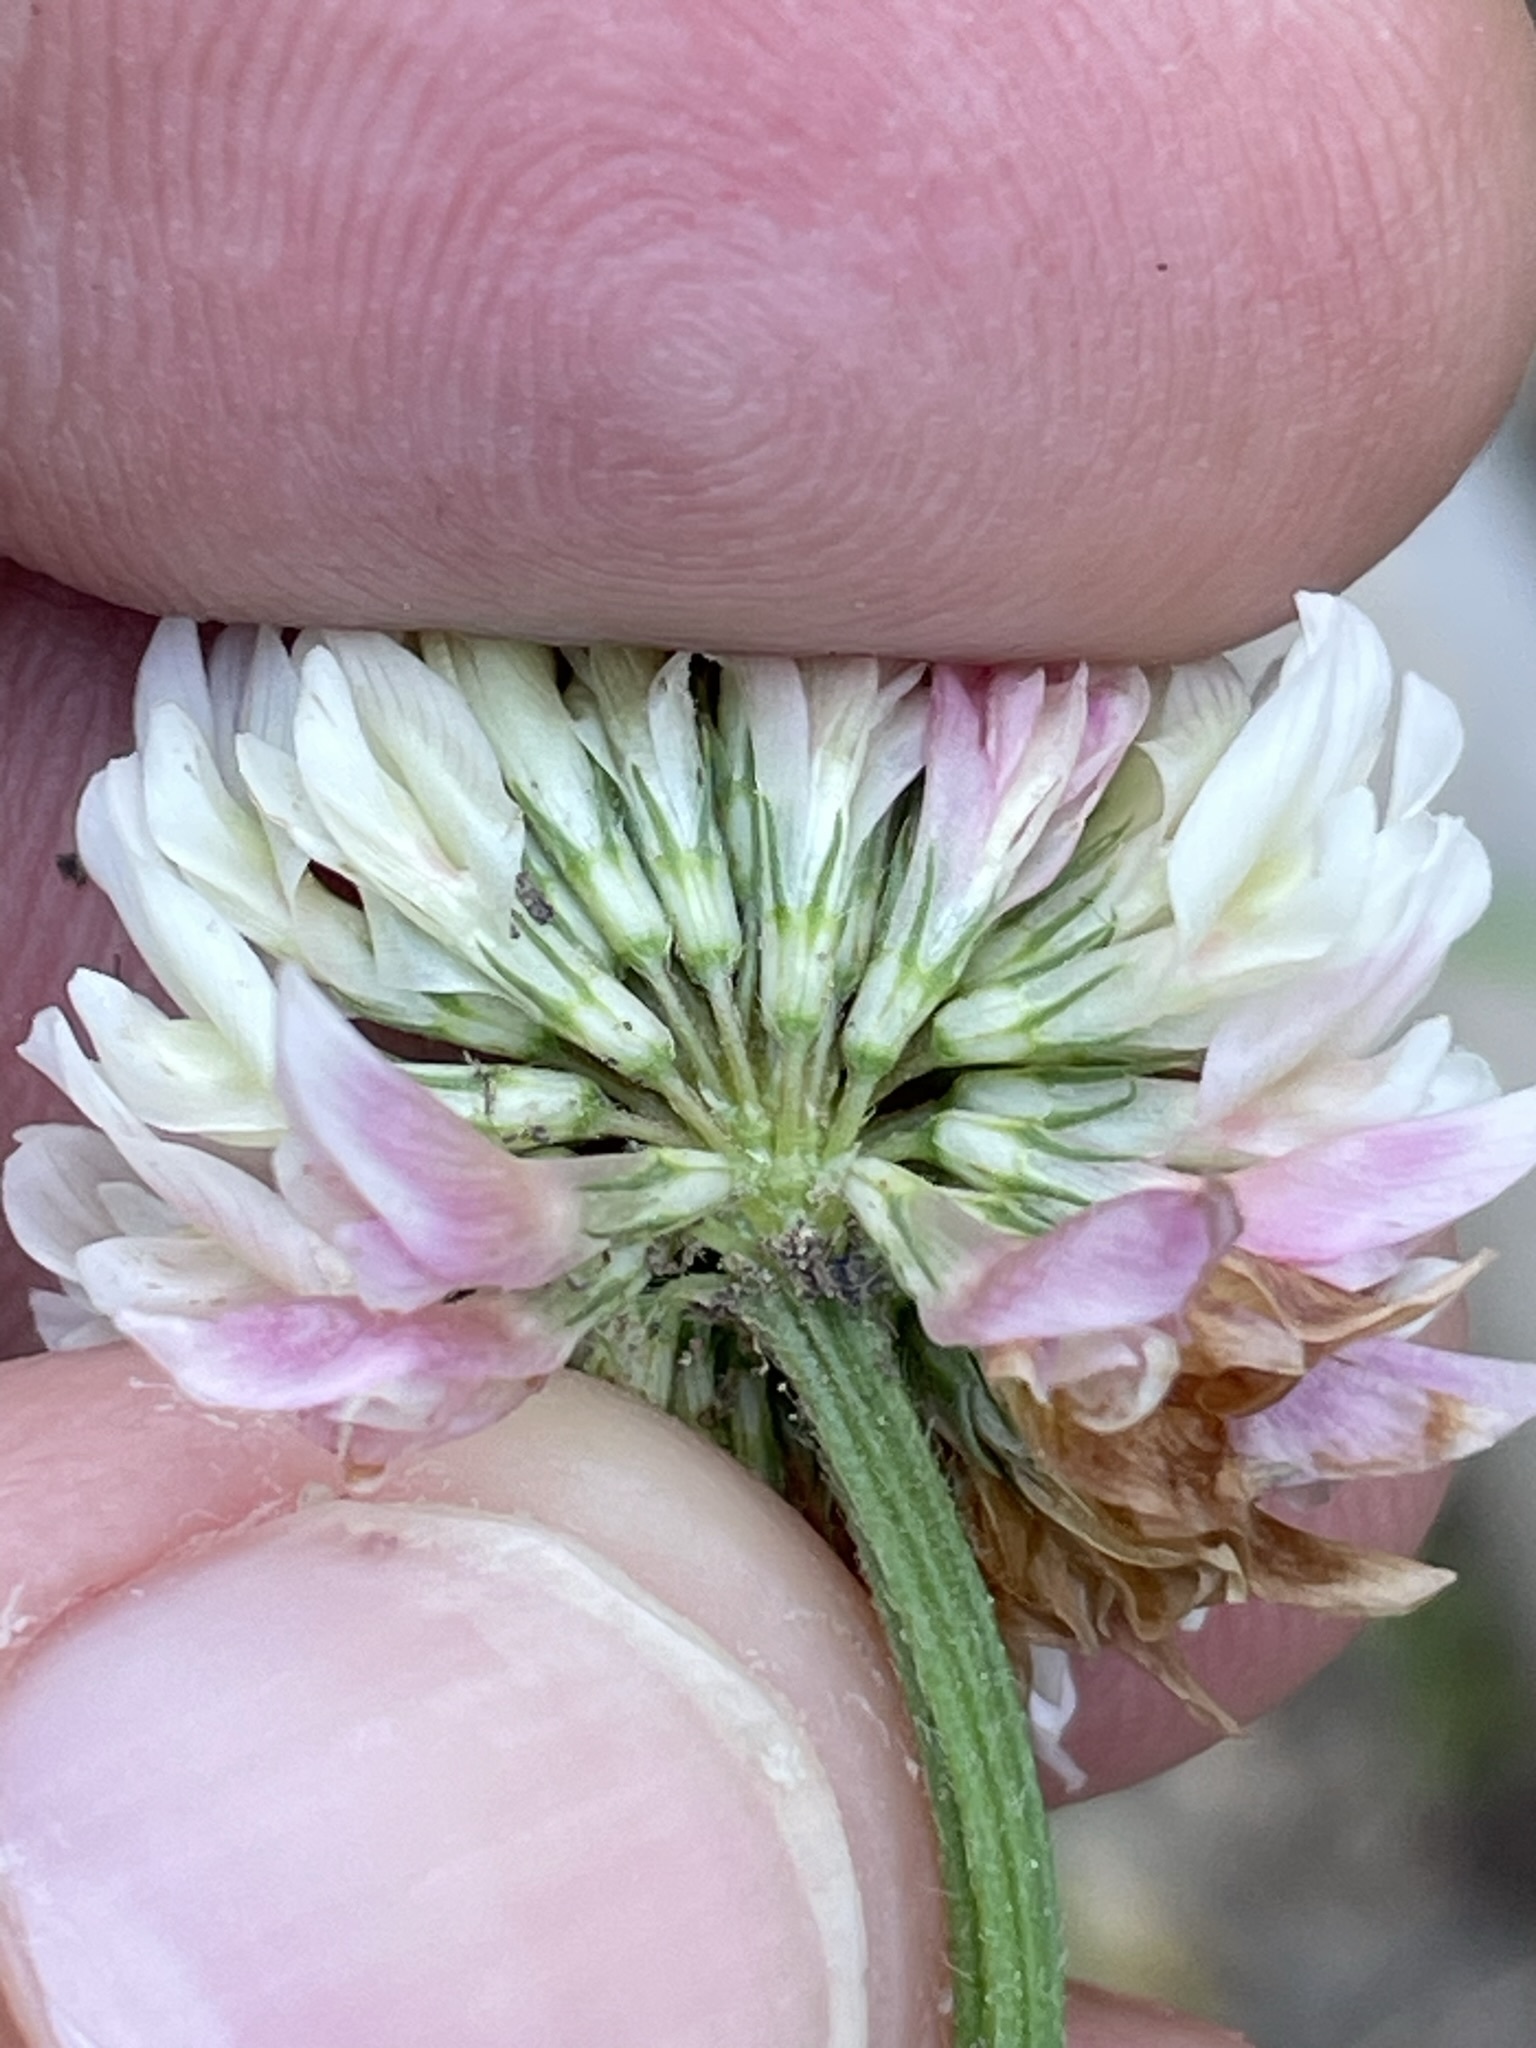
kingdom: Plantae
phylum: Tracheophyta
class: Magnoliopsida
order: Fabales
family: Fabaceae
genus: Trifolium
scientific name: Trifolium hybridum
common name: Alsike clover
